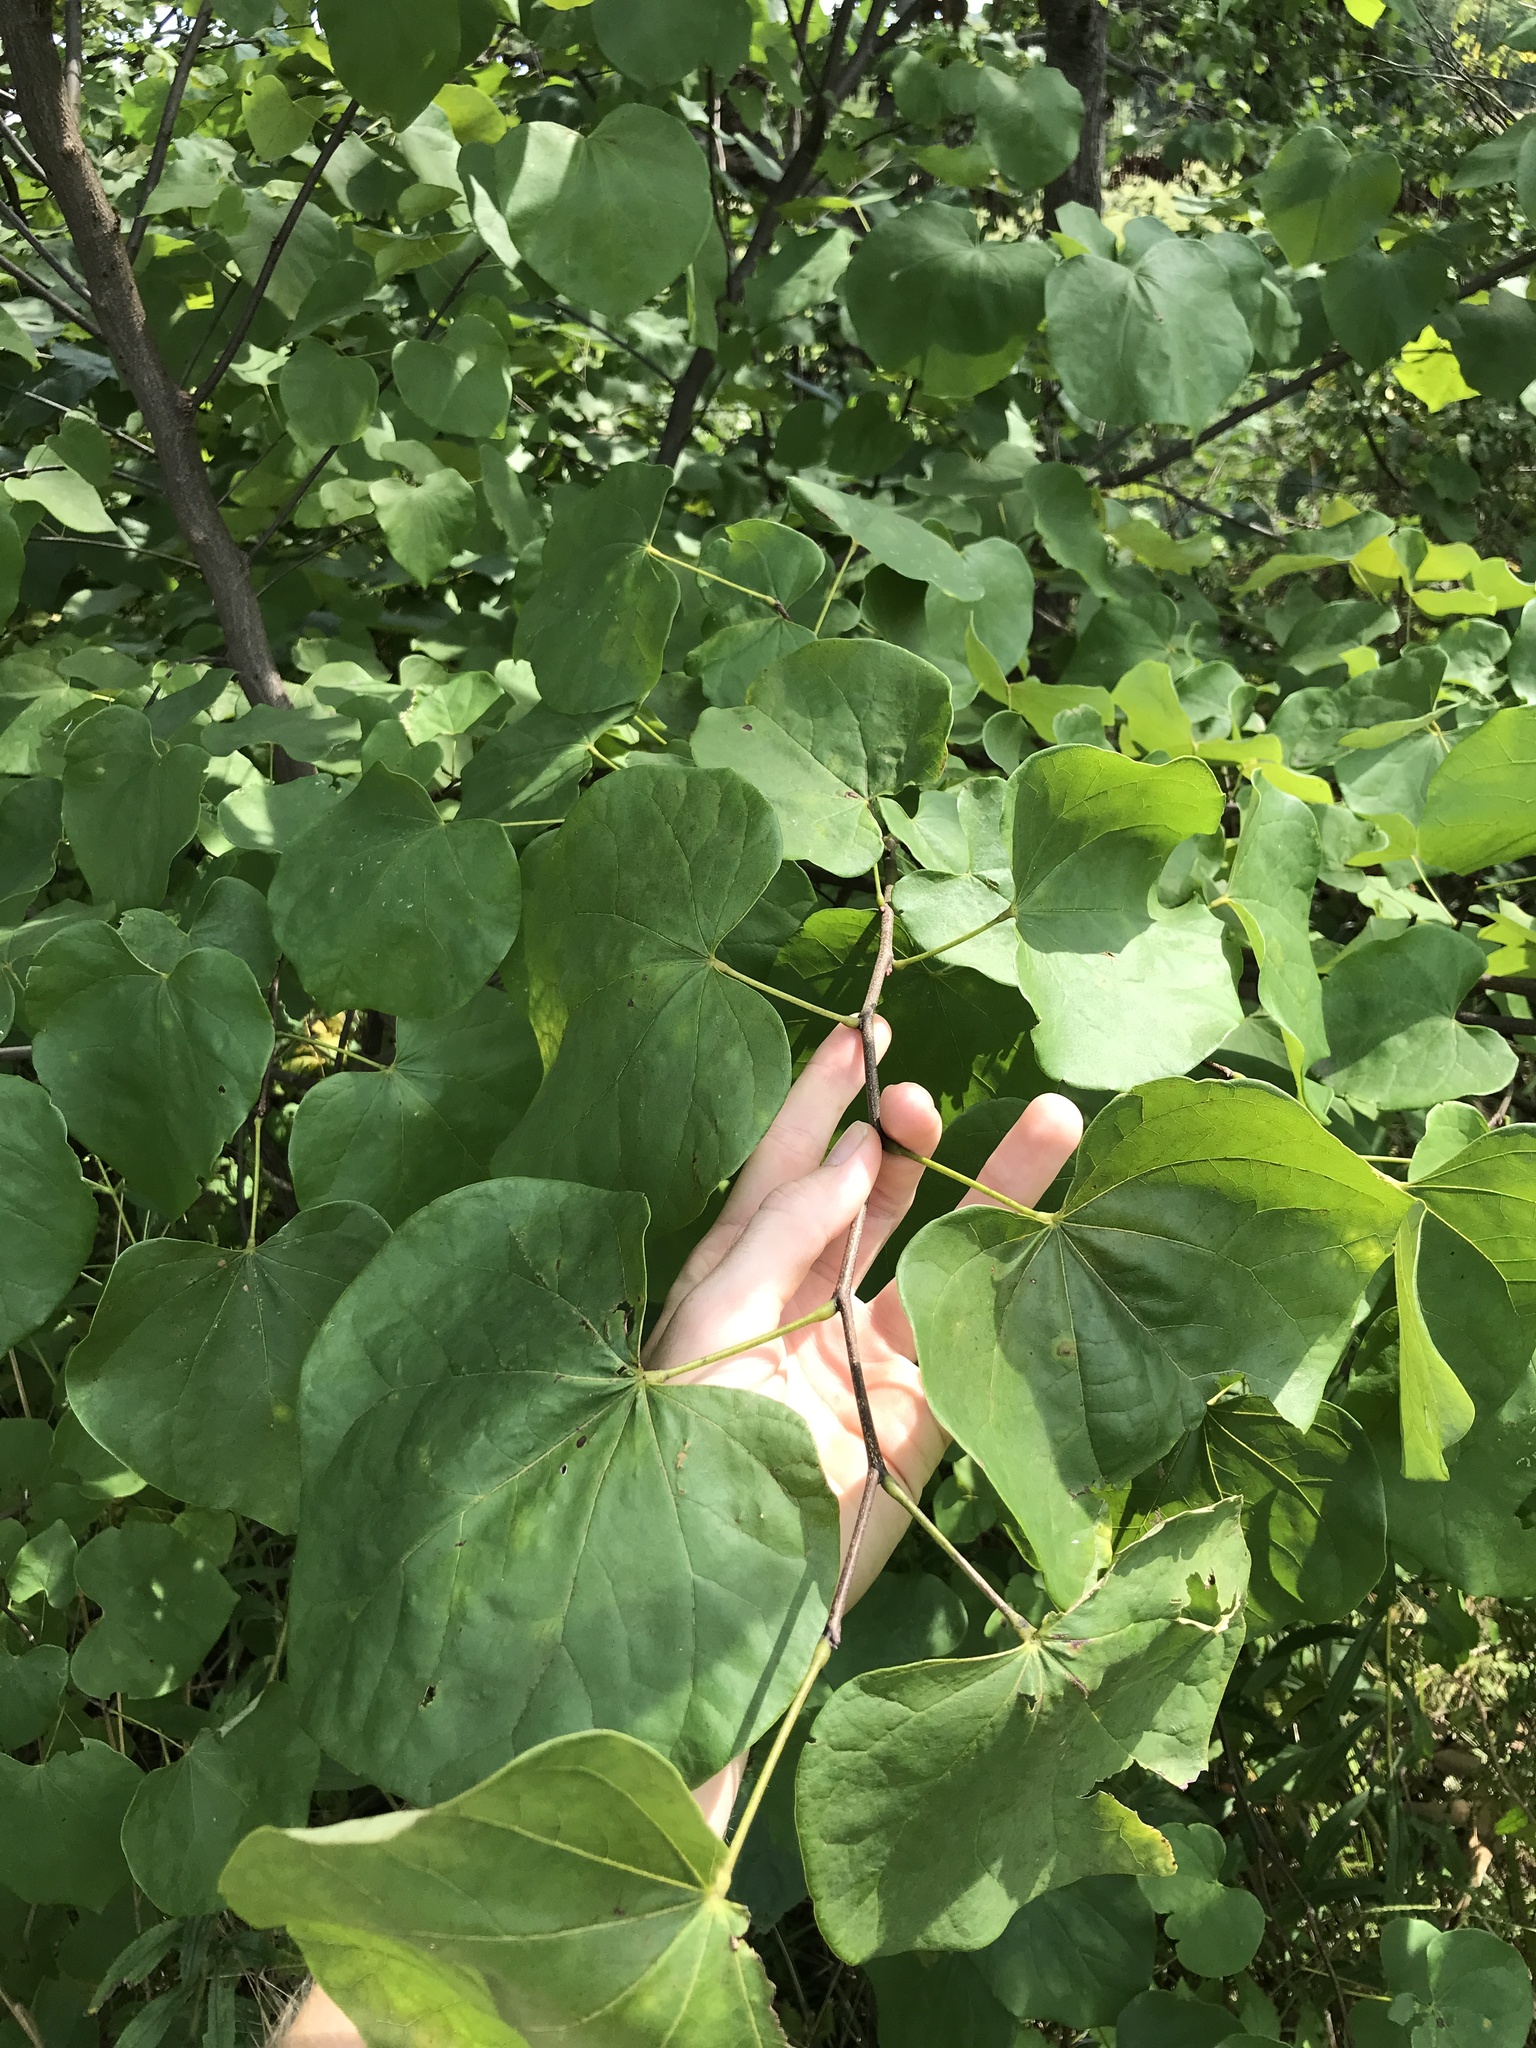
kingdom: Plantae
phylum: Tracheophyta
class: Magnoliopsida
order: Fabales
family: Fabaceae
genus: Cercis
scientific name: Cercis canadensis
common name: Eastern redbud
